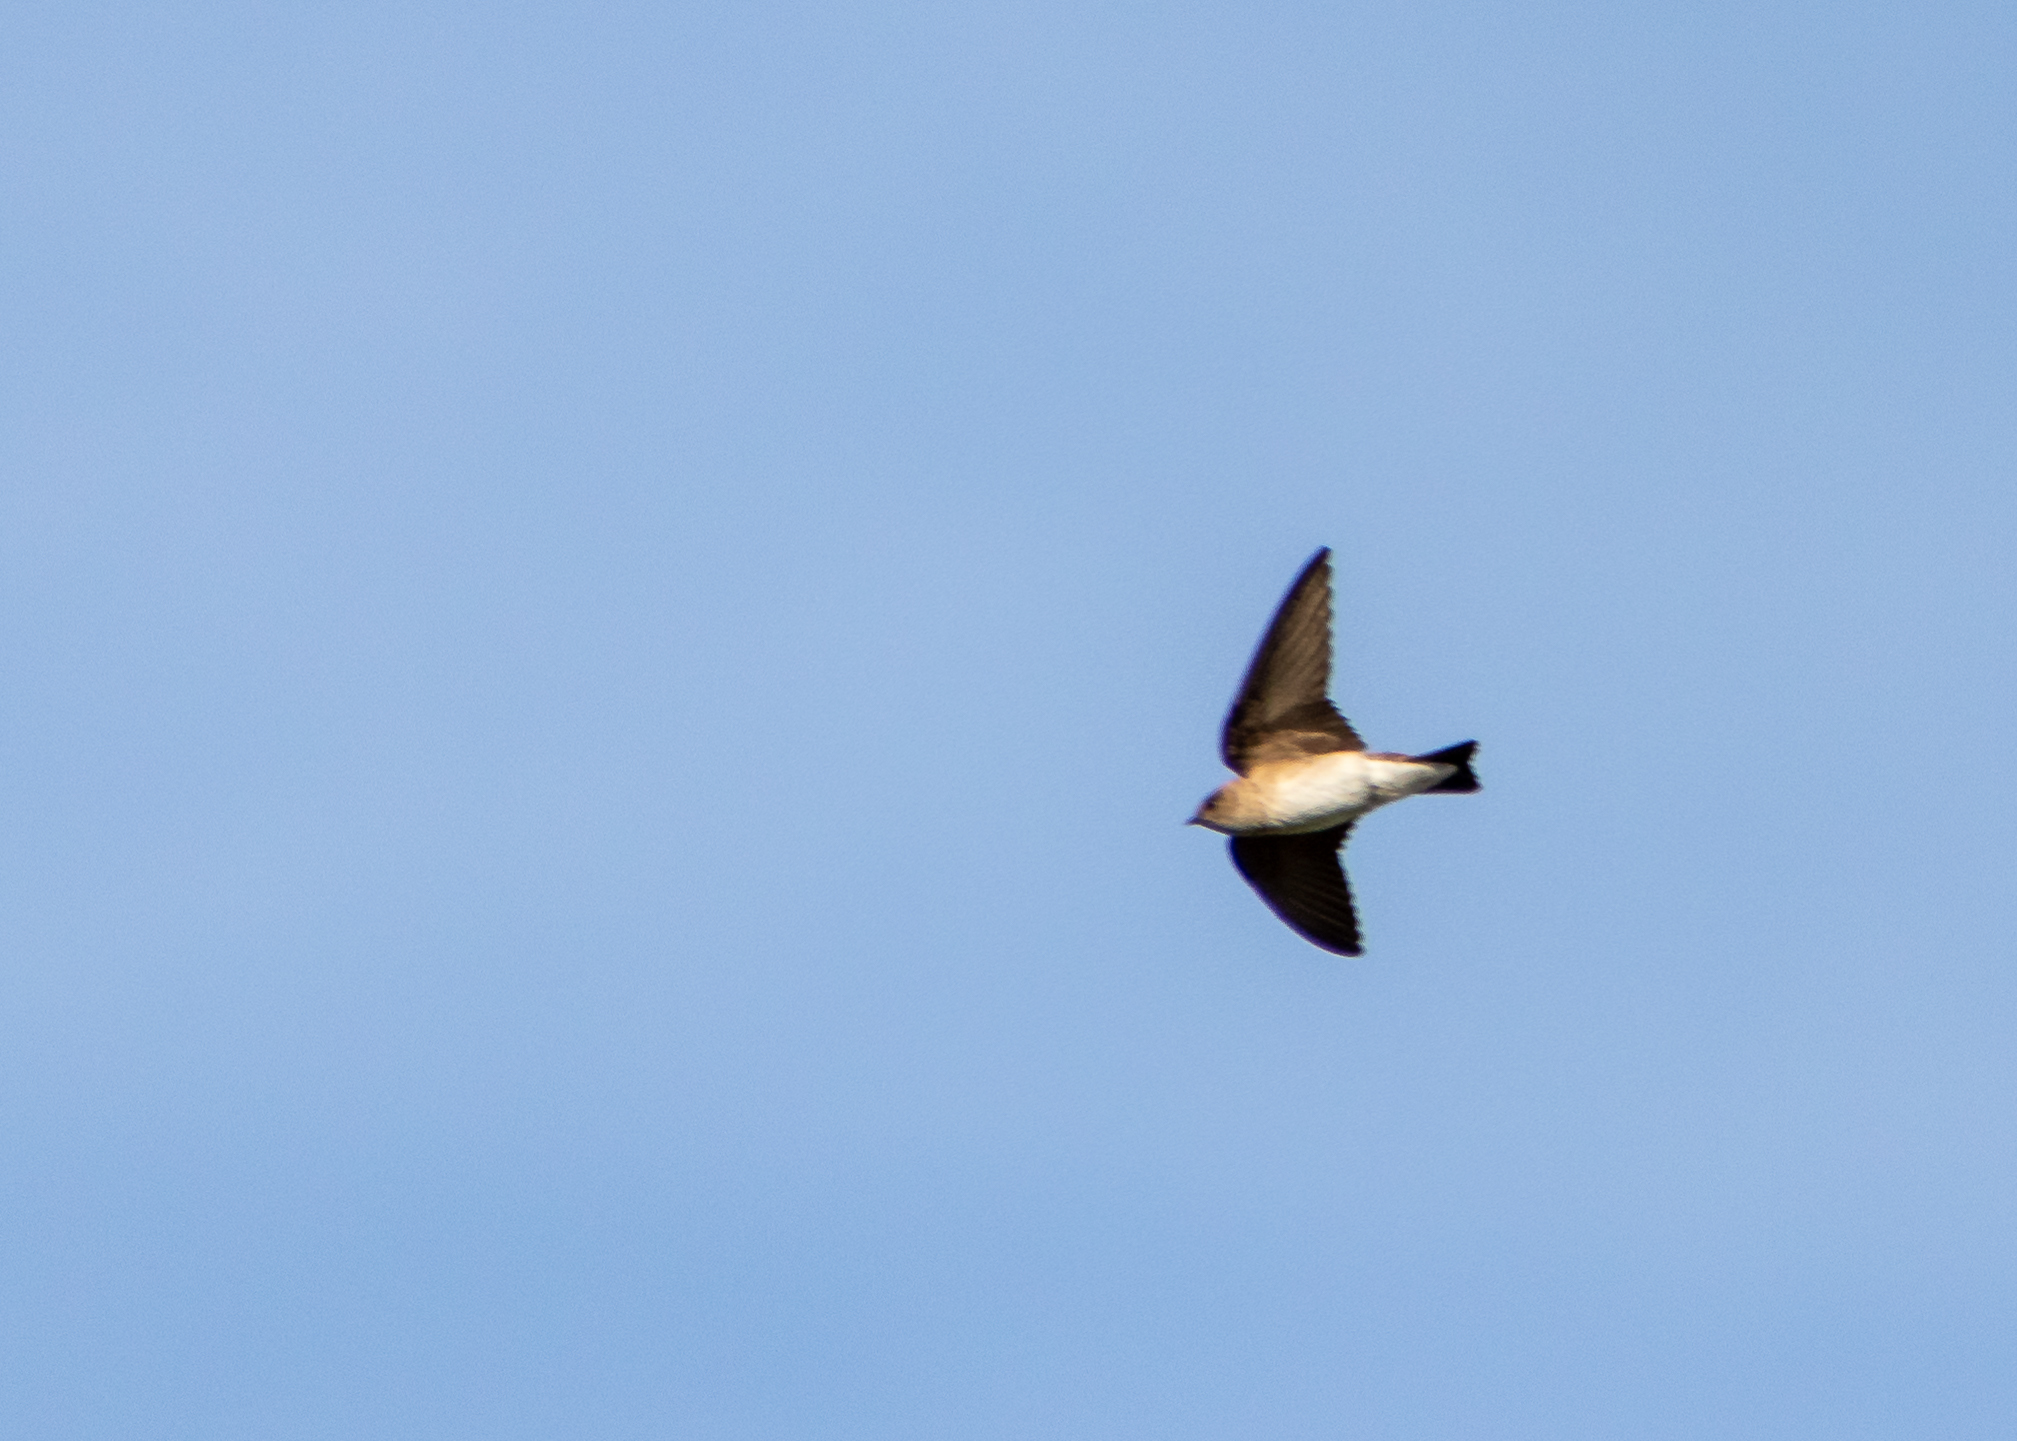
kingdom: Animalia
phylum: Chordata
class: Aves
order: Passeriformes
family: Hirundinidae
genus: Stelgidopteryx
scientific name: Stelgidopteryx serripennis
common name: Northern rough-winged swallow
